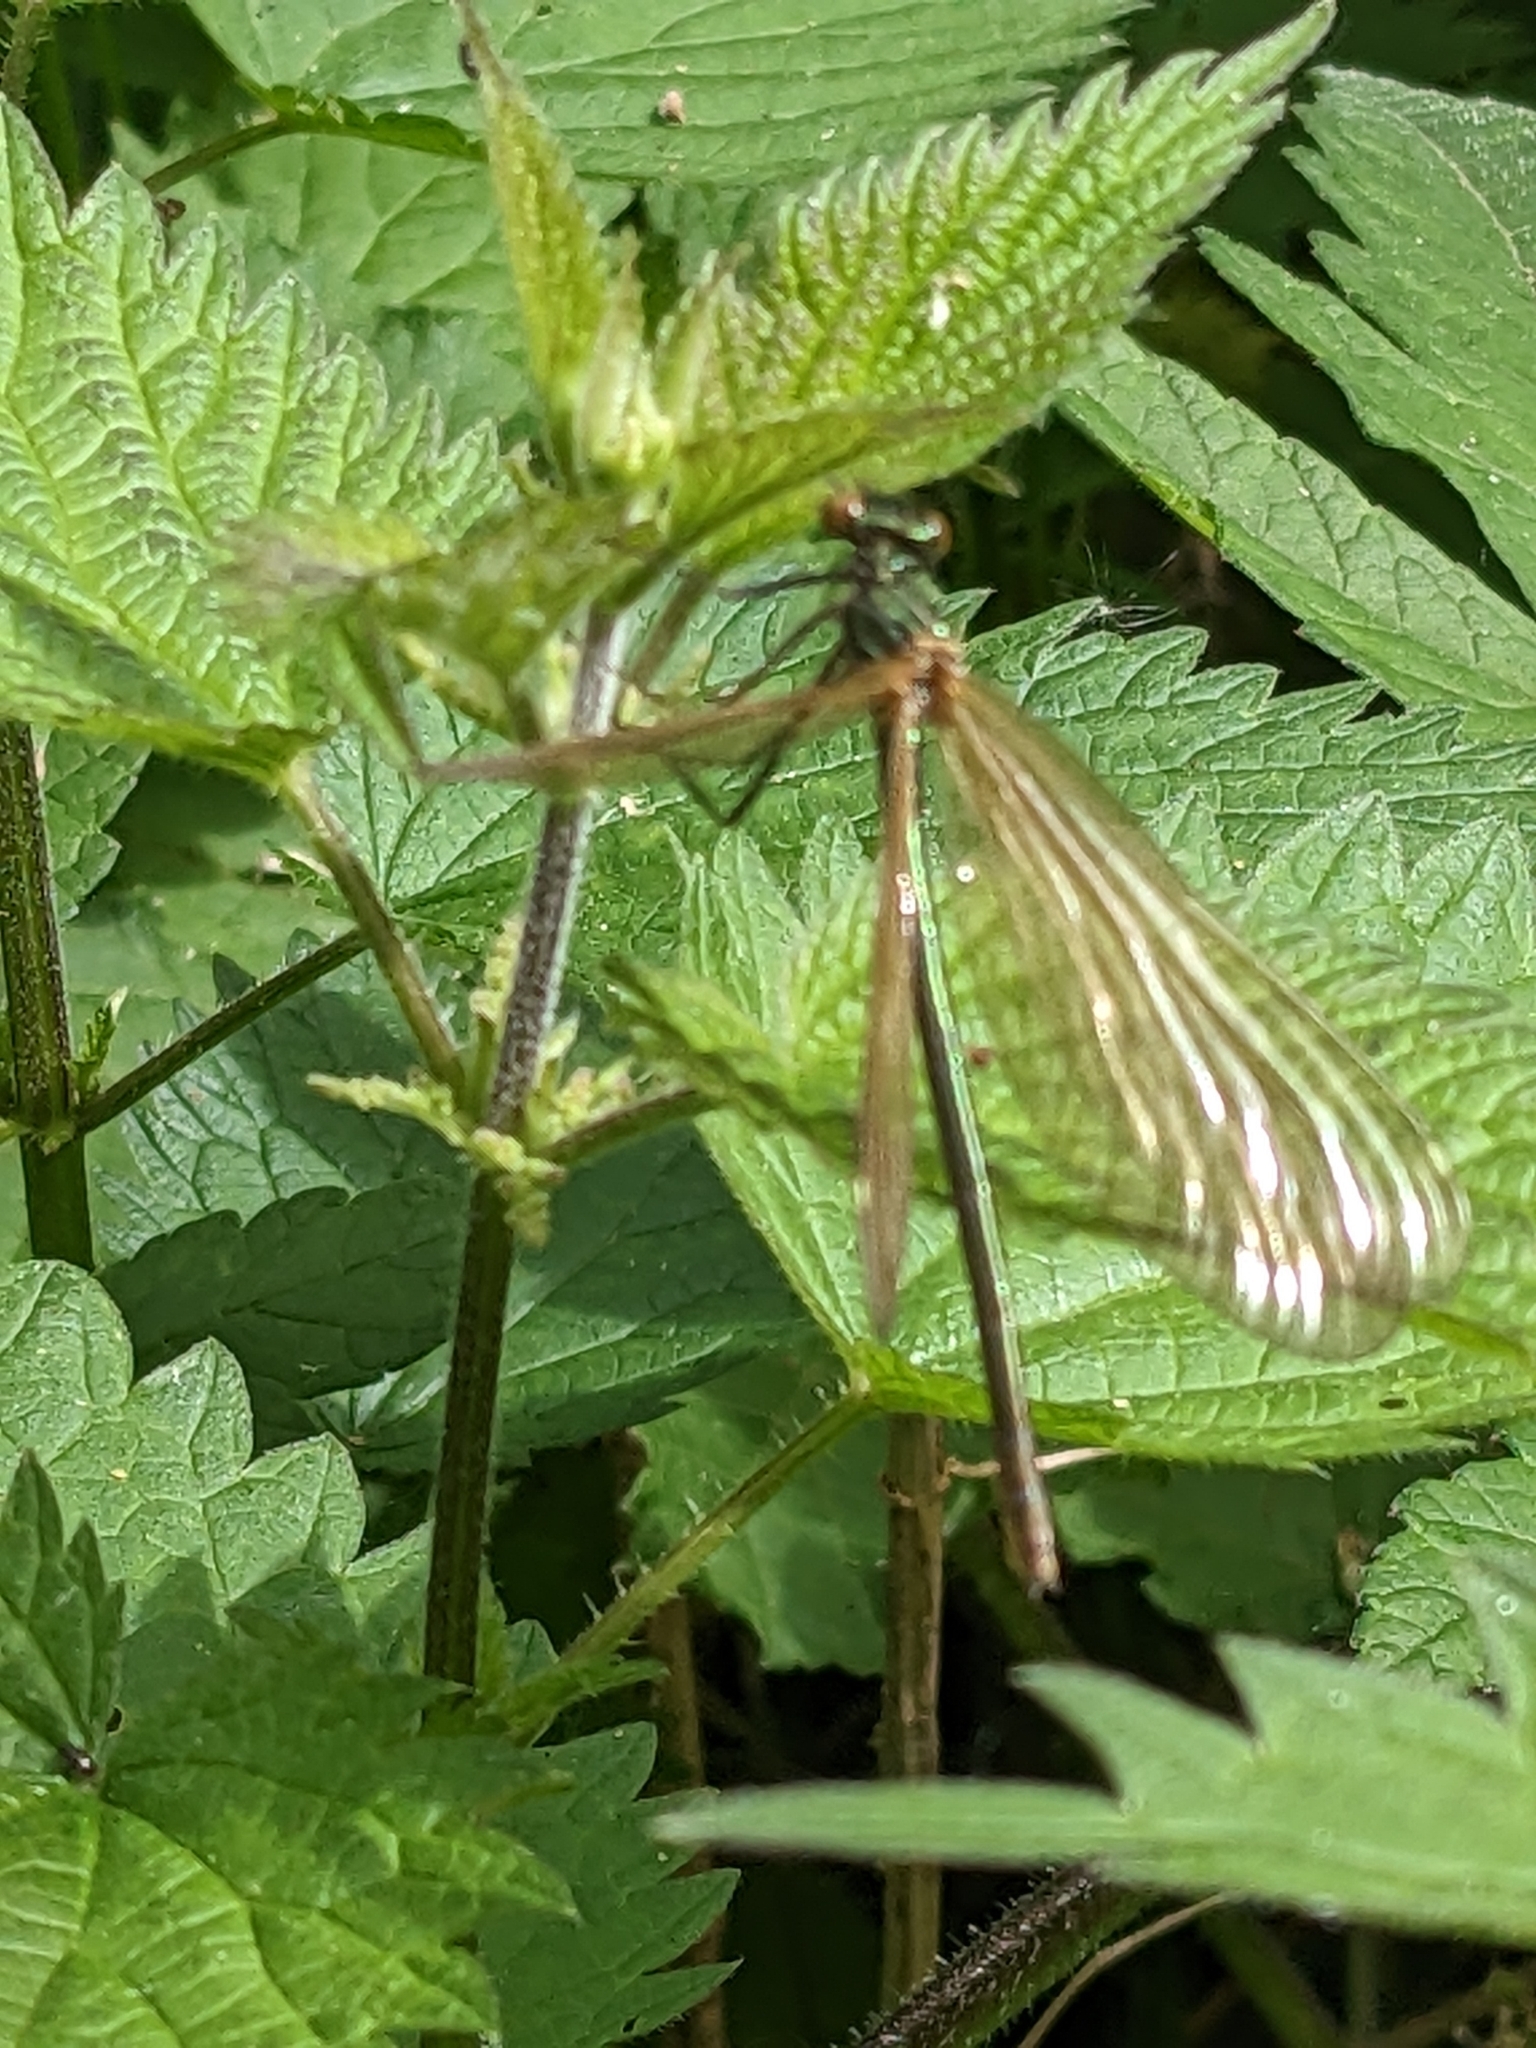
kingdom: Animalia
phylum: Arthropoda
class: Insecta
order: Odonata
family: Calopterygidae
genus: Calopteryx
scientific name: Calopteryx virgo
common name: Beautiful demoiselle
